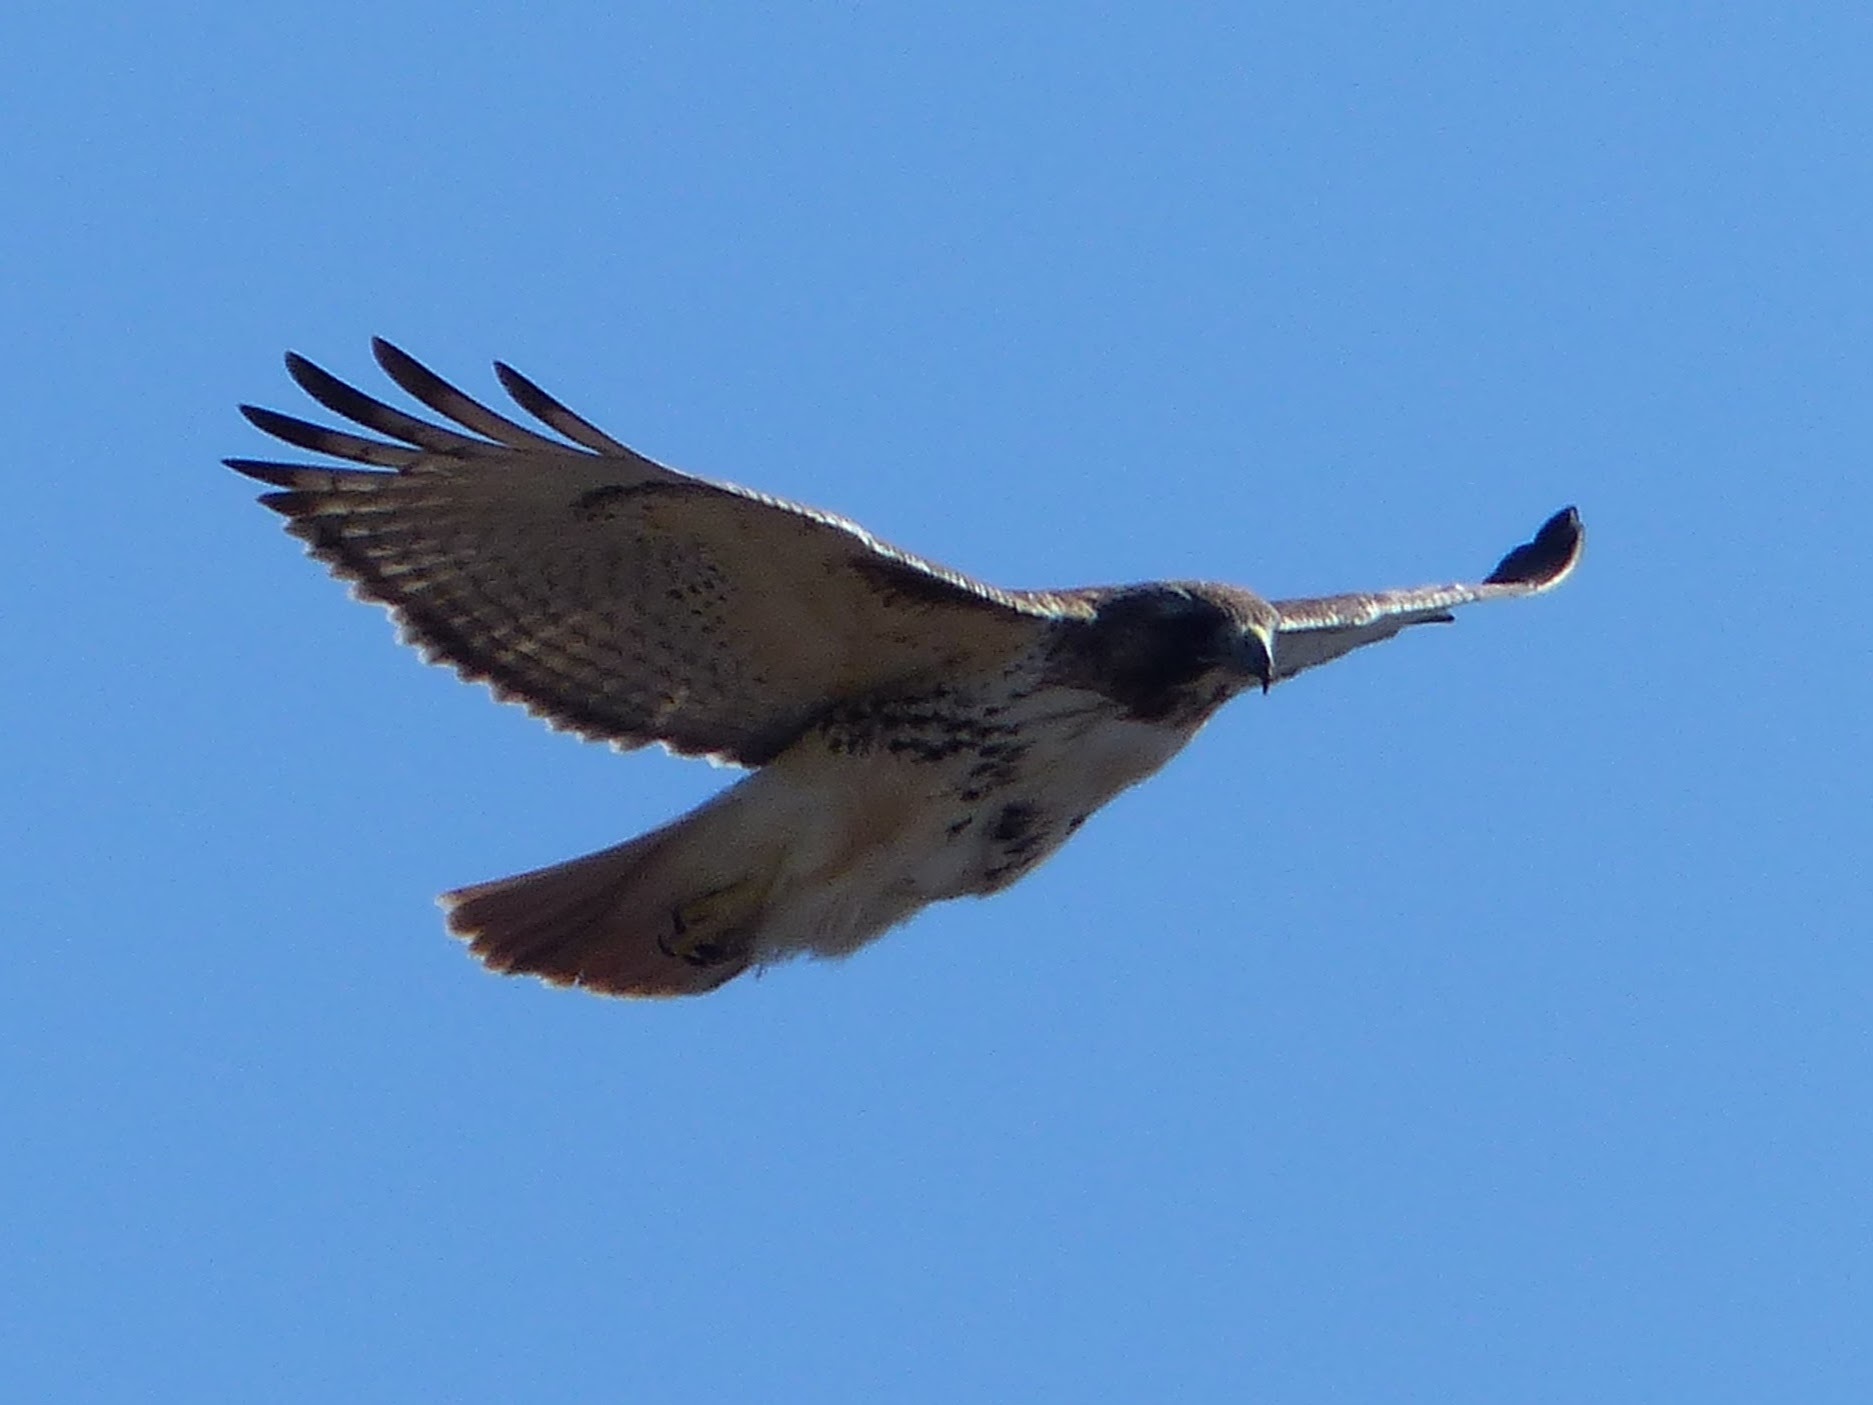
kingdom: Animalia
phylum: Chordata
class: Aves
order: Accipitriformes
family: Accipitridae
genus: Buteo
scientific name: Buteo jamaicensis
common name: Red-tailed hawk
